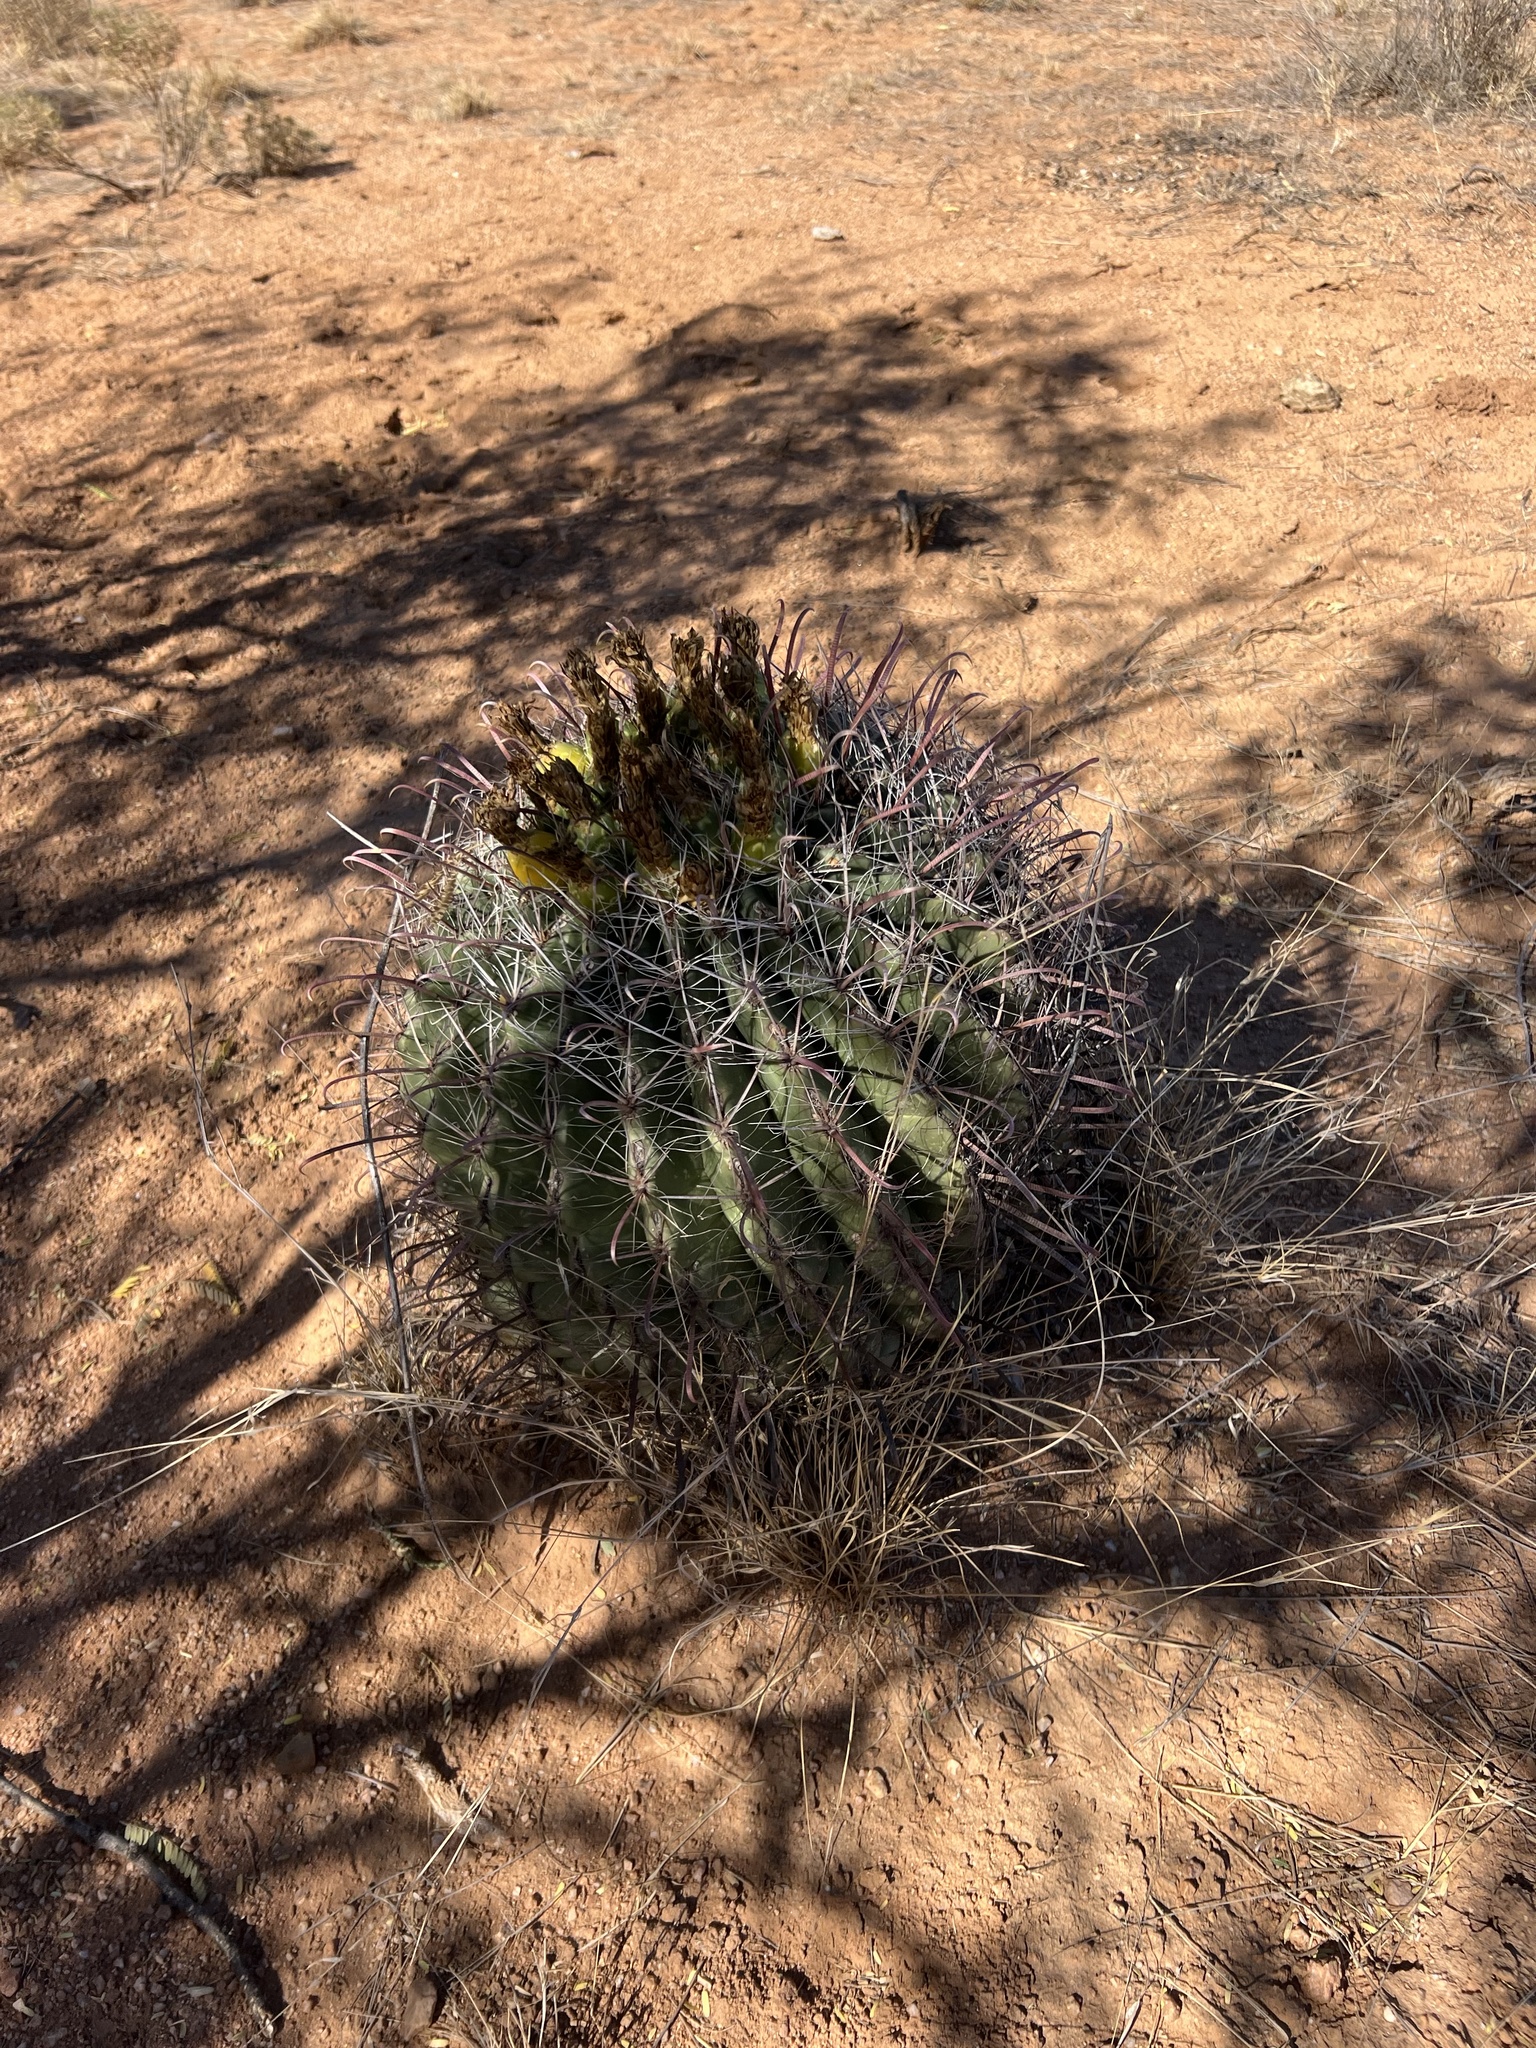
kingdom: Plantae
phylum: Tracheophyta
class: Magnoliopsida
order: Caryophyllales
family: Cactaceae
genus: Ferocactus
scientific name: Ferocactus wislizeni
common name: Candy barrel cactus
